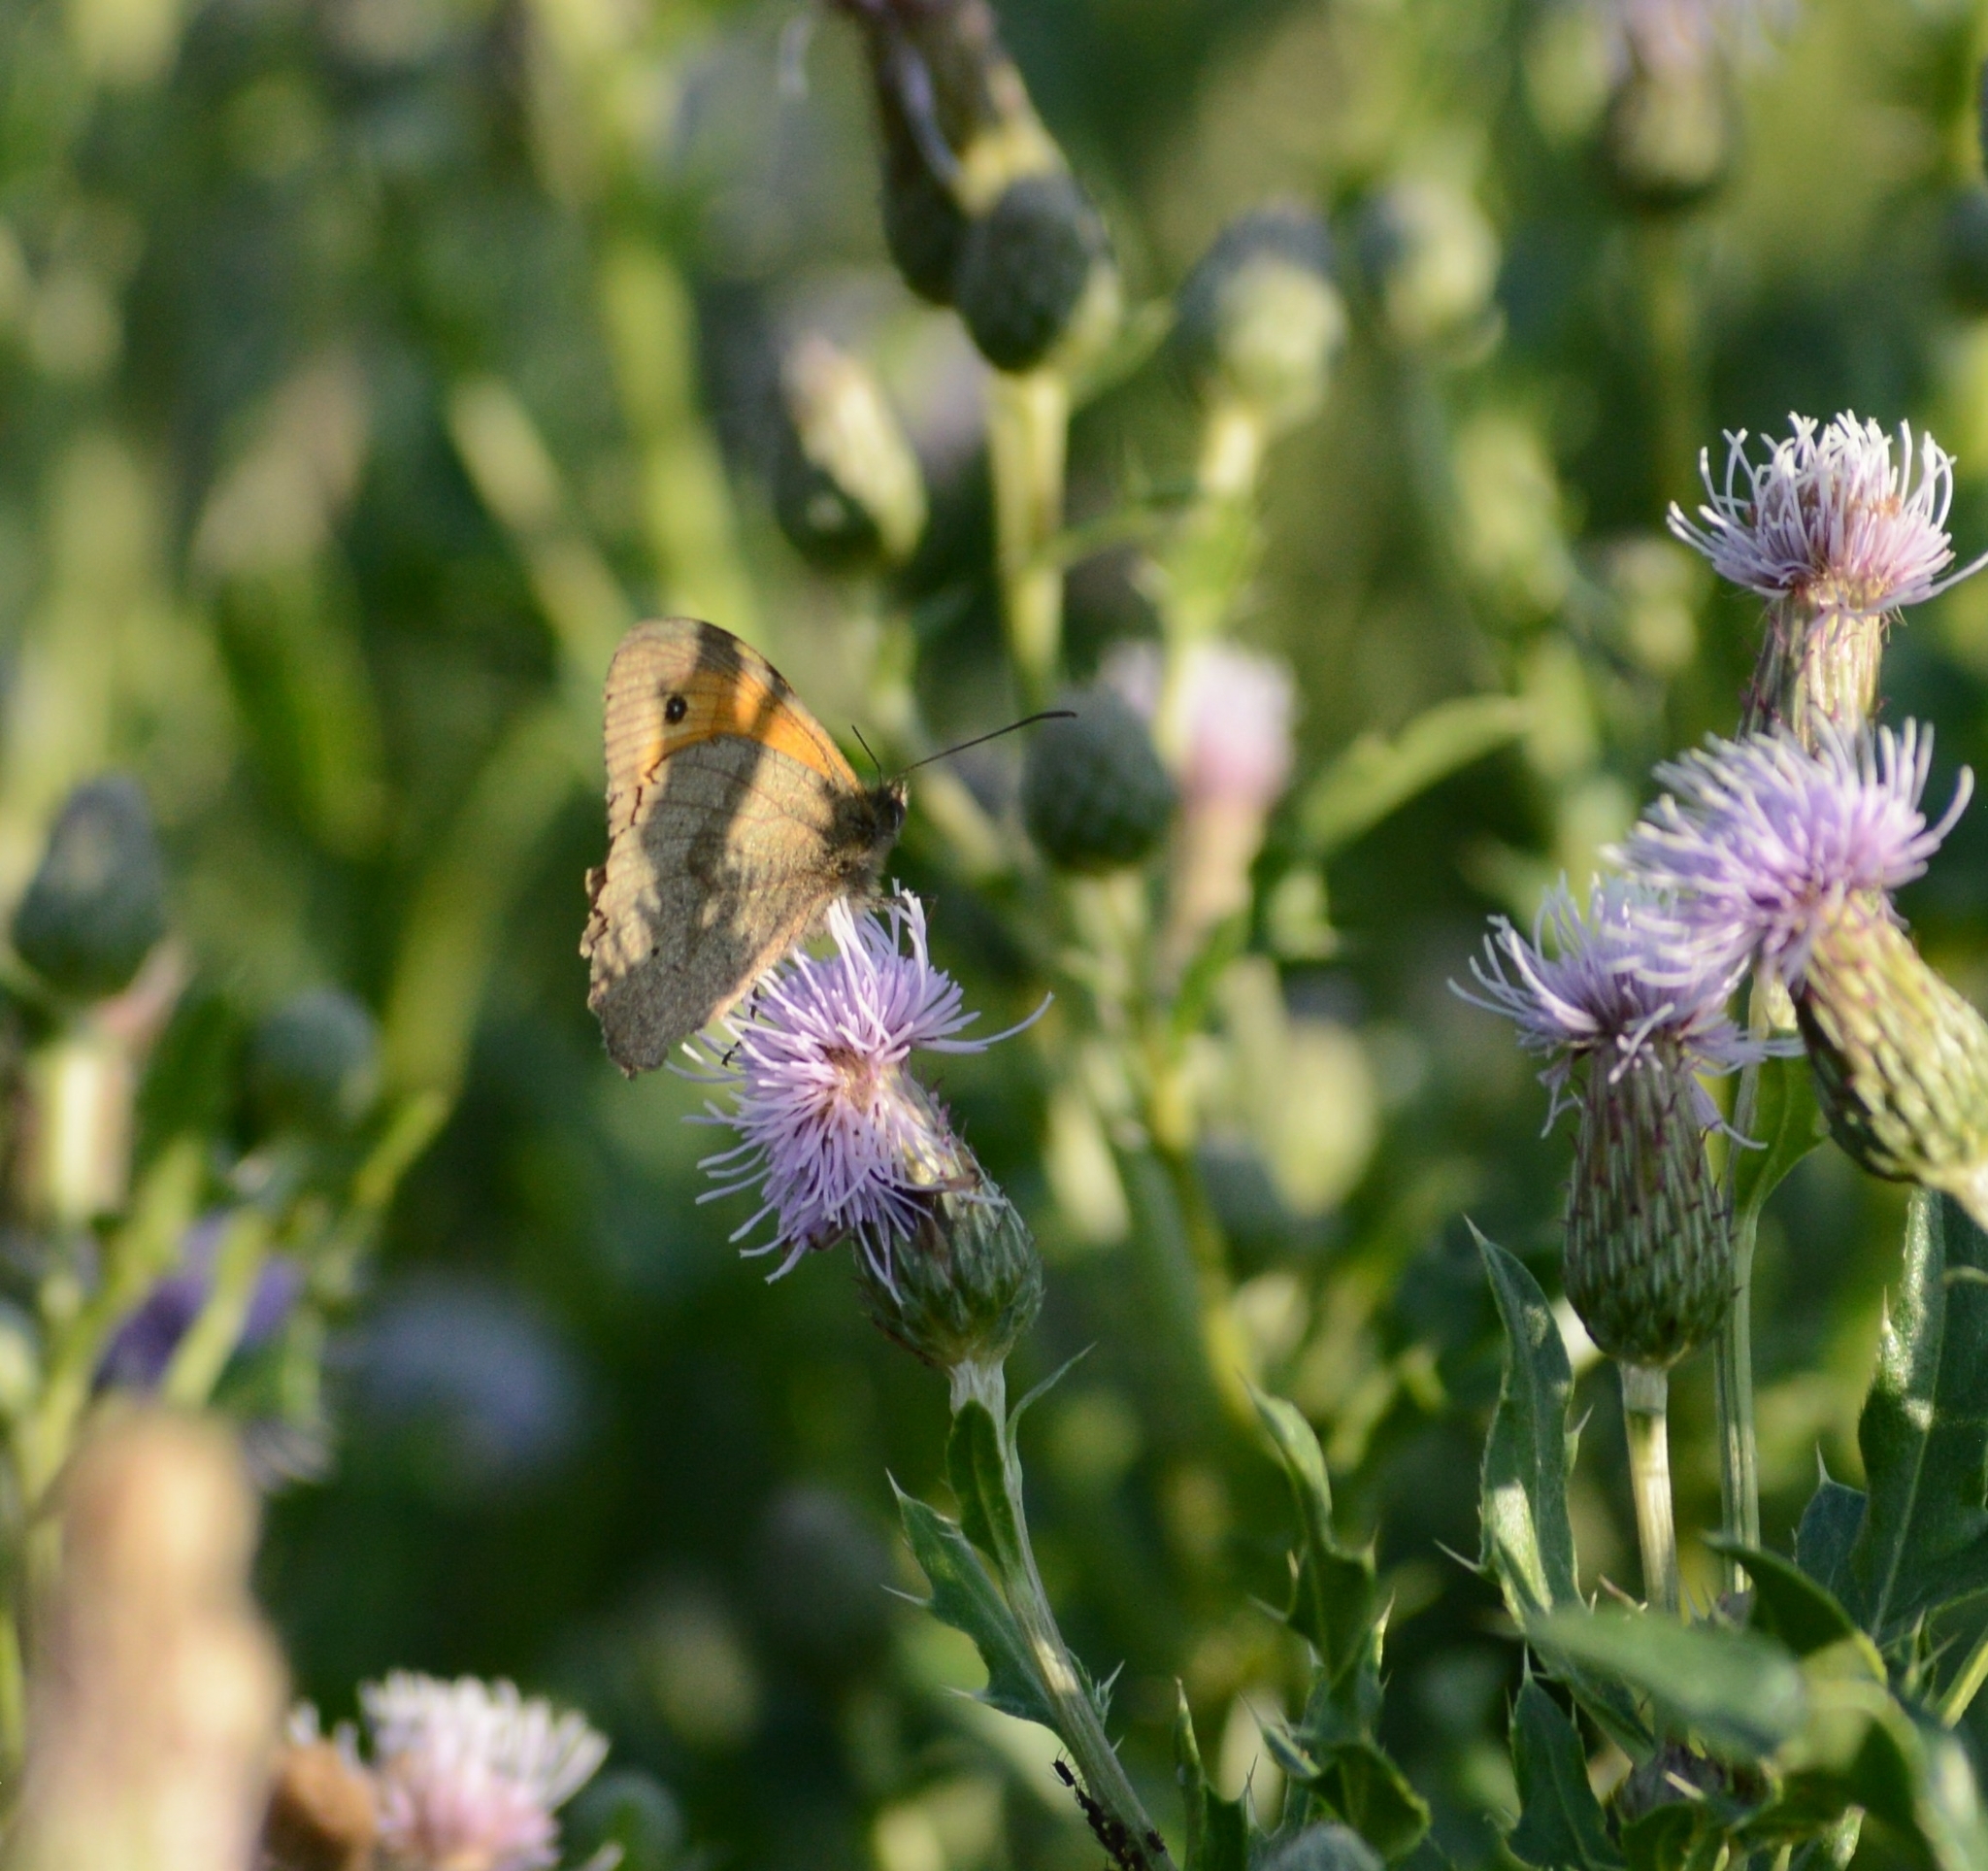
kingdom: Animalia
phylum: Arthropoda
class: Insecta
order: Lepidoptera
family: Nymphalidae
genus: Maniola
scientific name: Maniola jurtina
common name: Meadow brown
